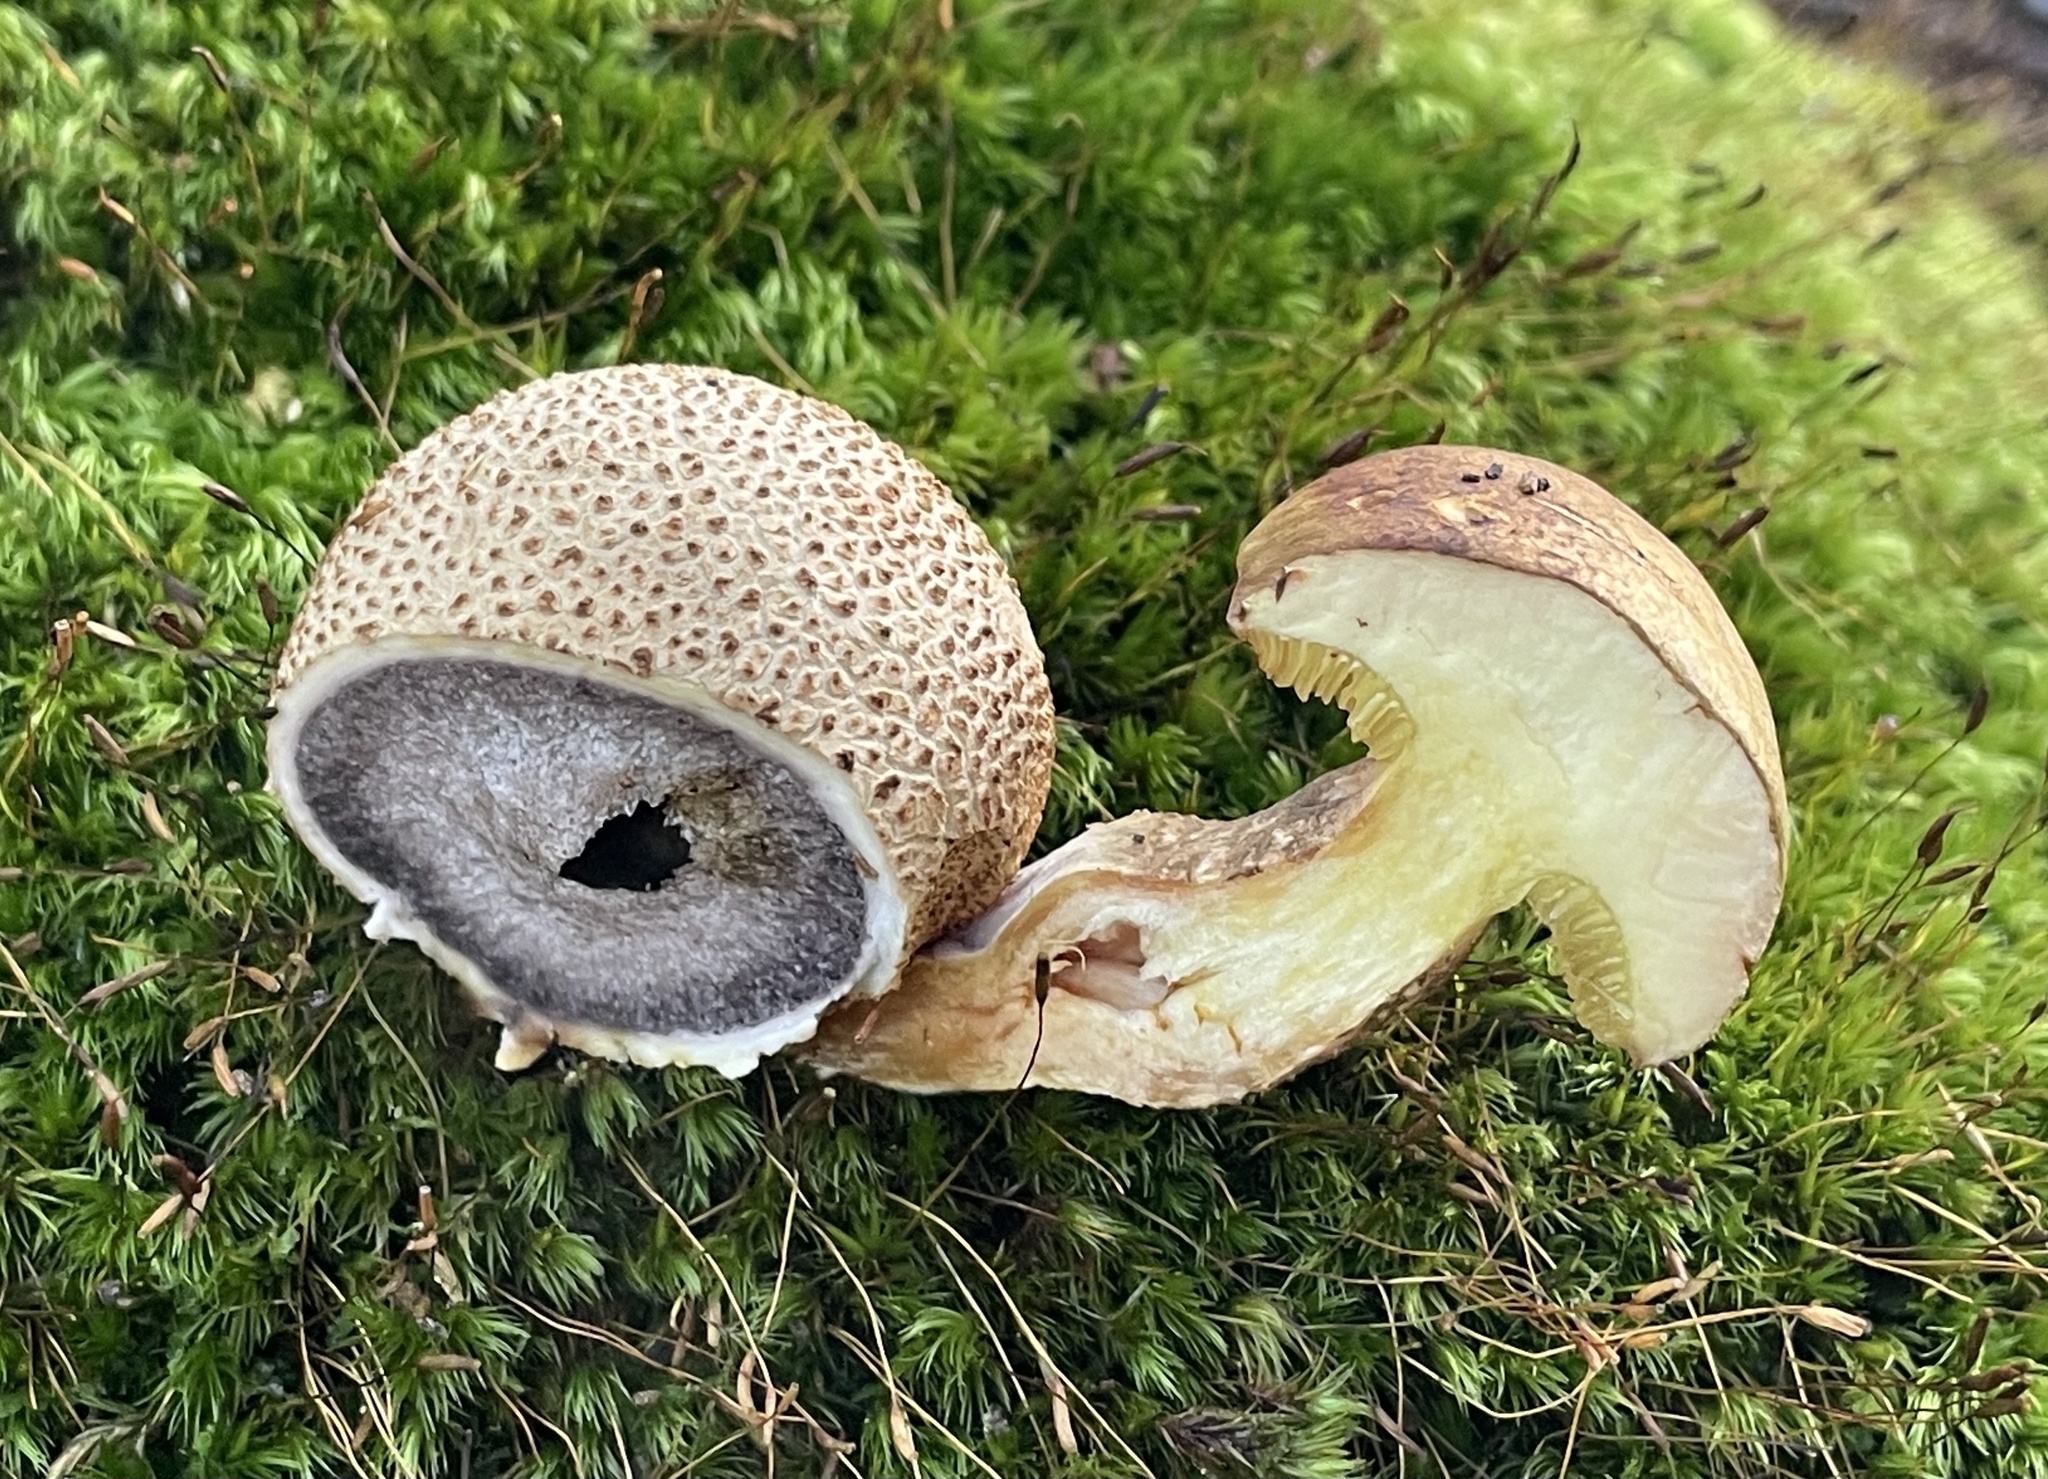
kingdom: Fungi
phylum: Basidiomycota
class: Agaricomycetes
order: Boletales
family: Boletaceae
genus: Pseudoboletus
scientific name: Pseudoboletus parasiticus
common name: Parasitic bolete
